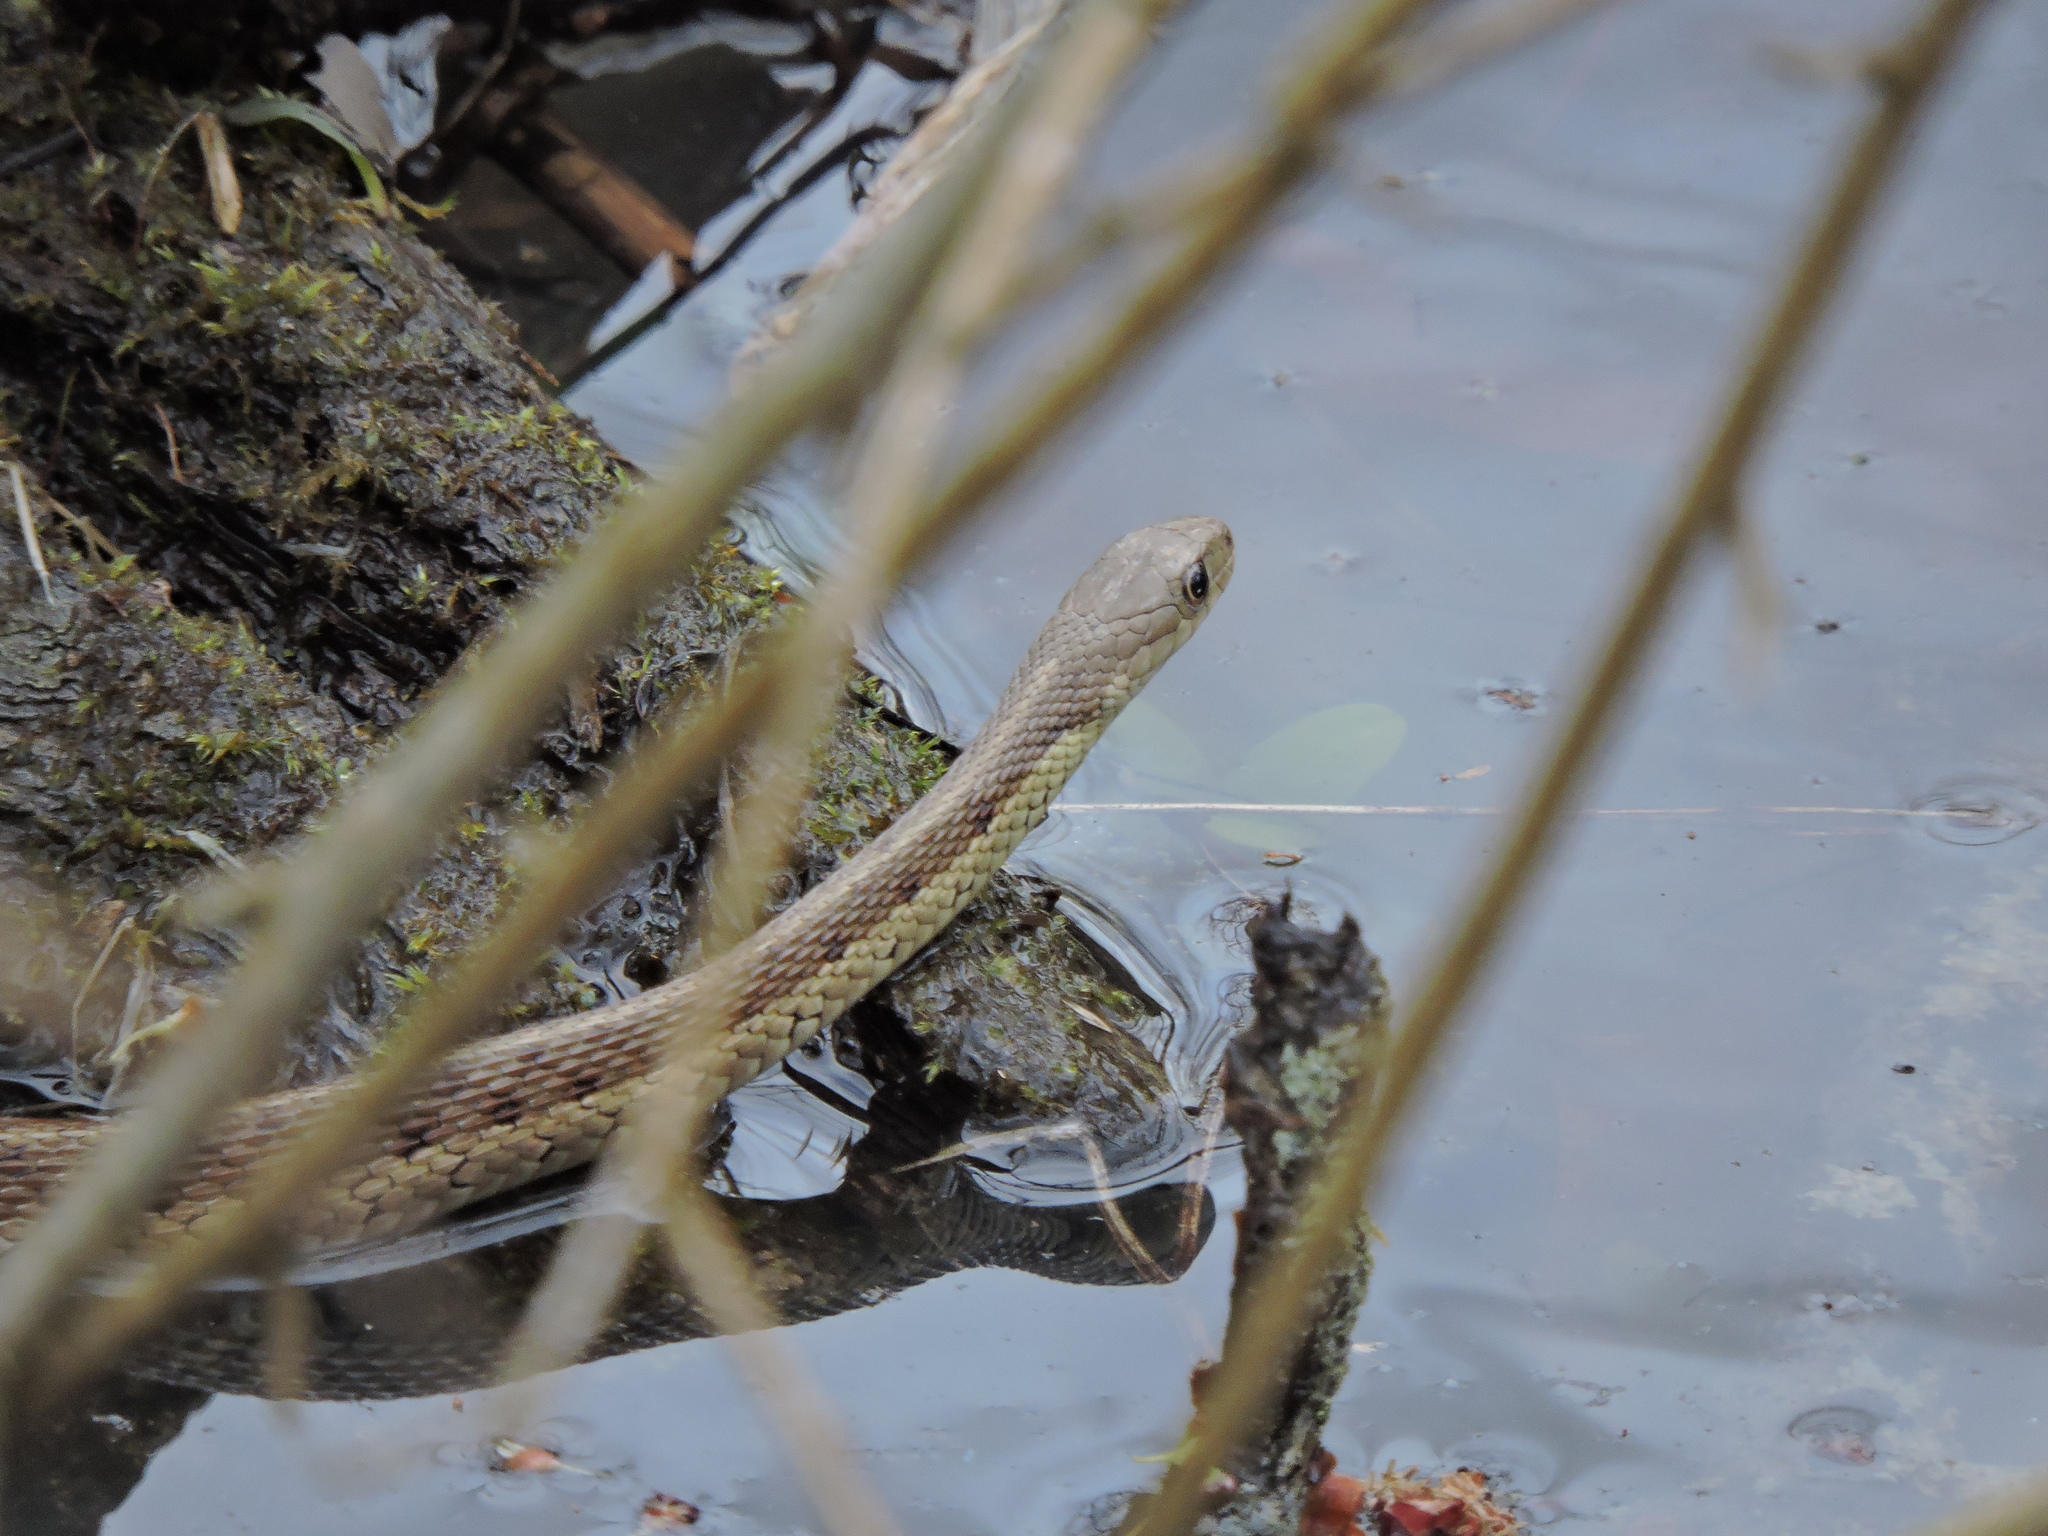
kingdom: Animalia
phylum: Chordata
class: Squamata
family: Colubridae
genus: Thamnophis
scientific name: Thamnophis sirtalis
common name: Common garter snake
